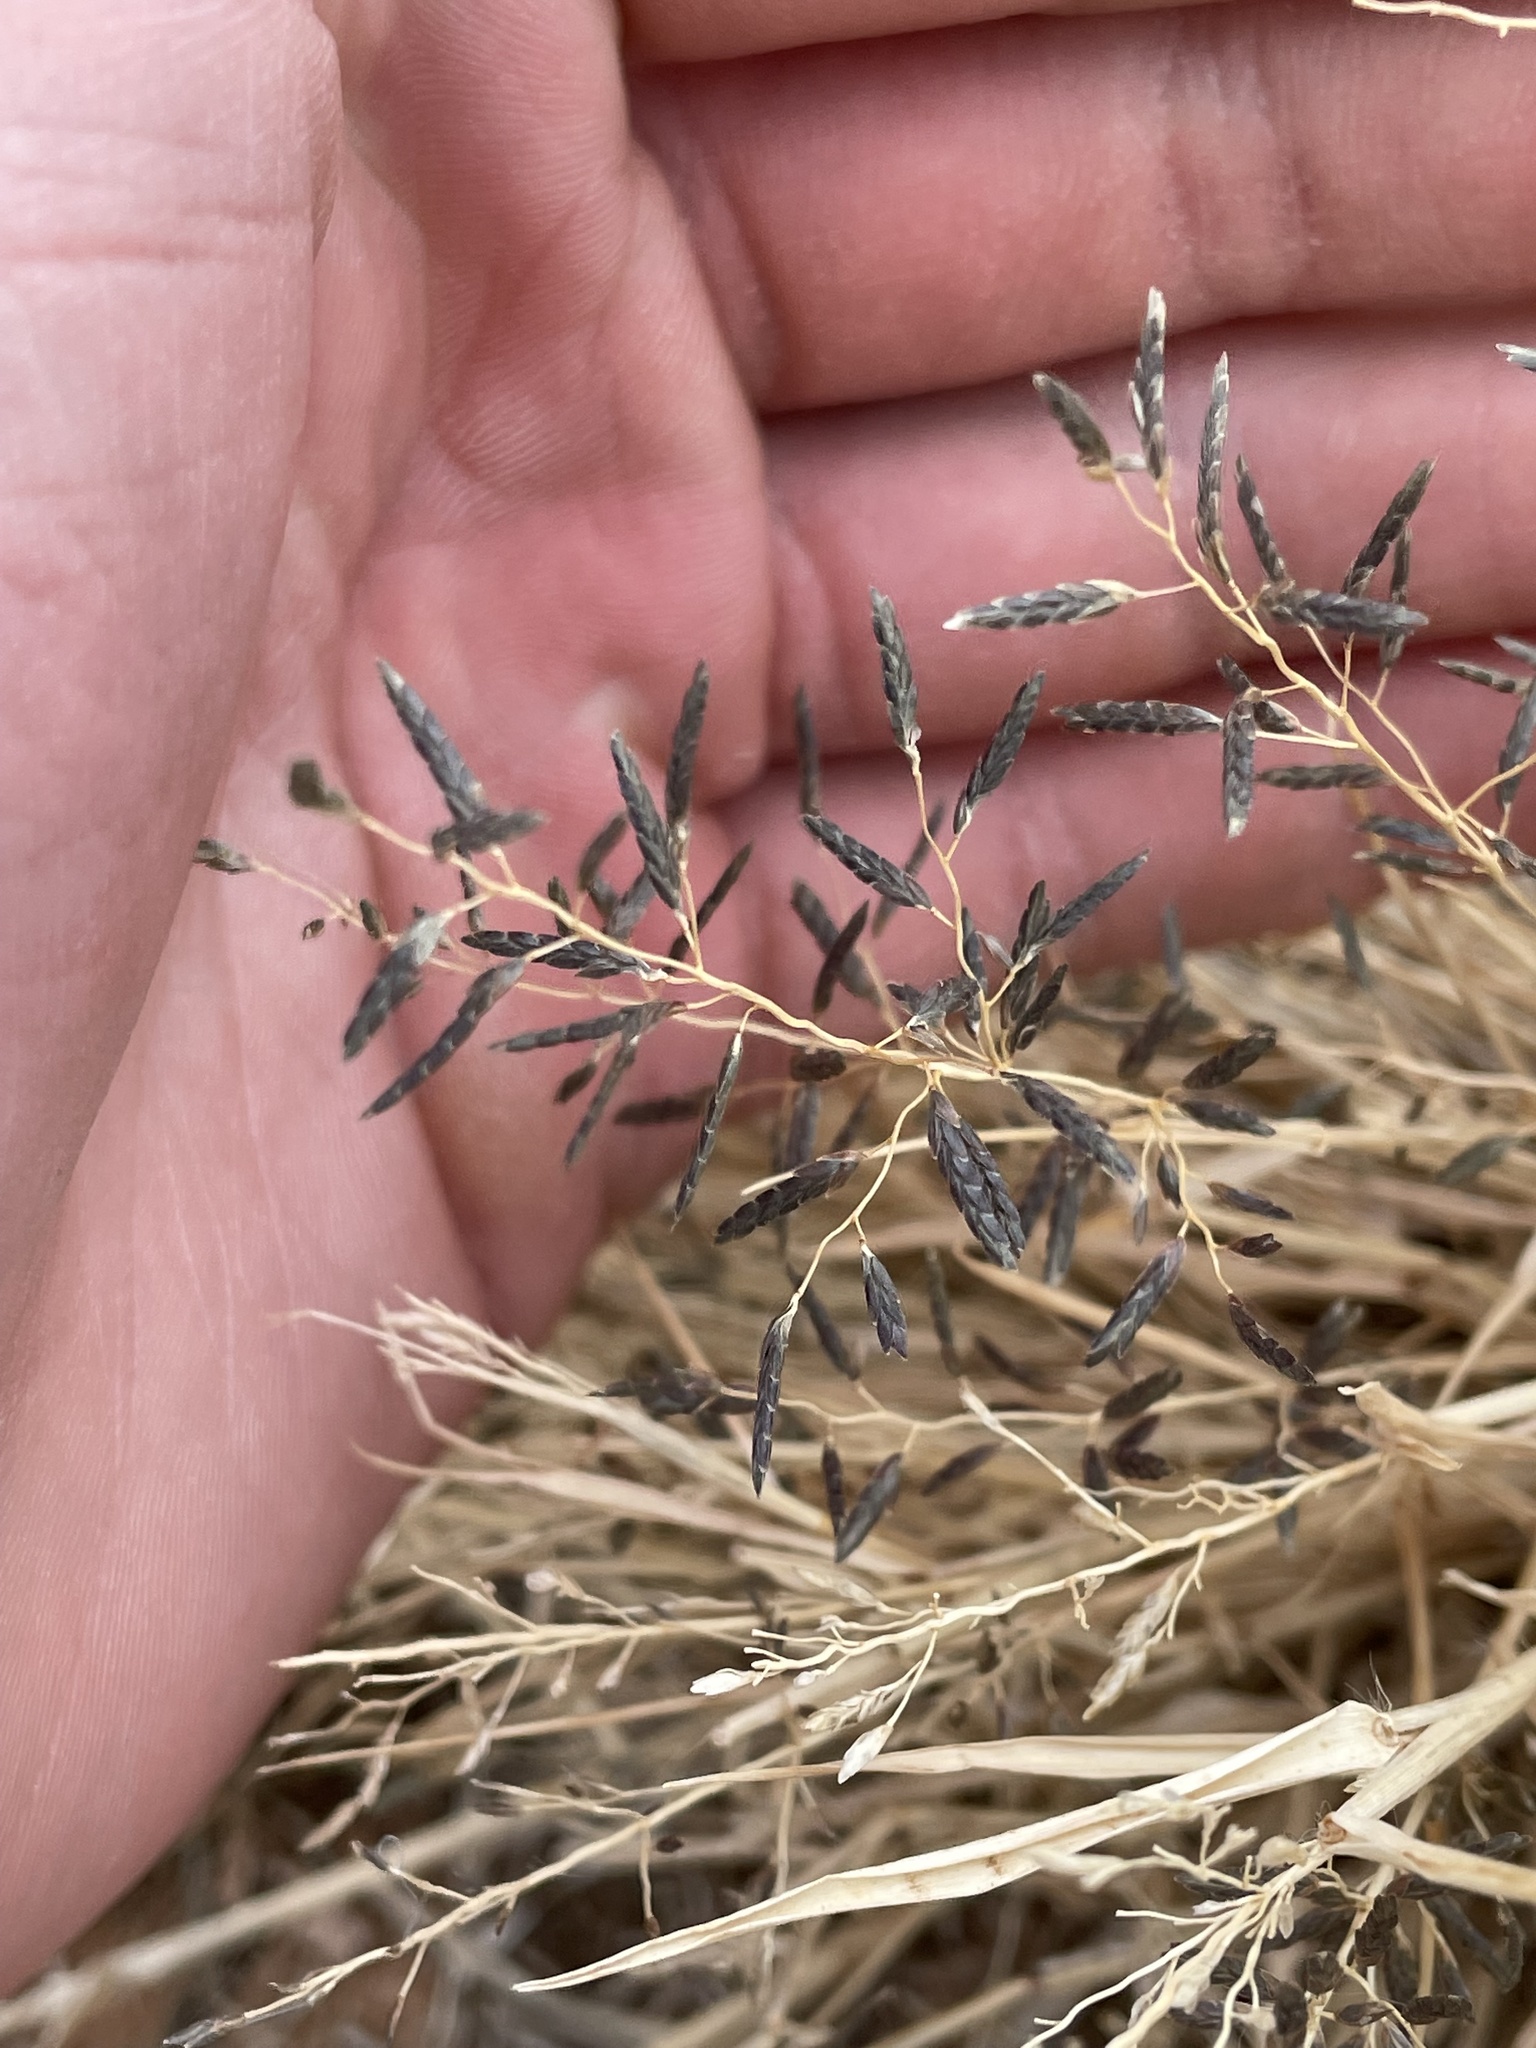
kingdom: Plantae
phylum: Tracheophyta
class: Liliopsida
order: Poales
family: Poaceae
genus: Eragrostis
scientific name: Eragrostis lehmanniana
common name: Lehmann lovegrass
